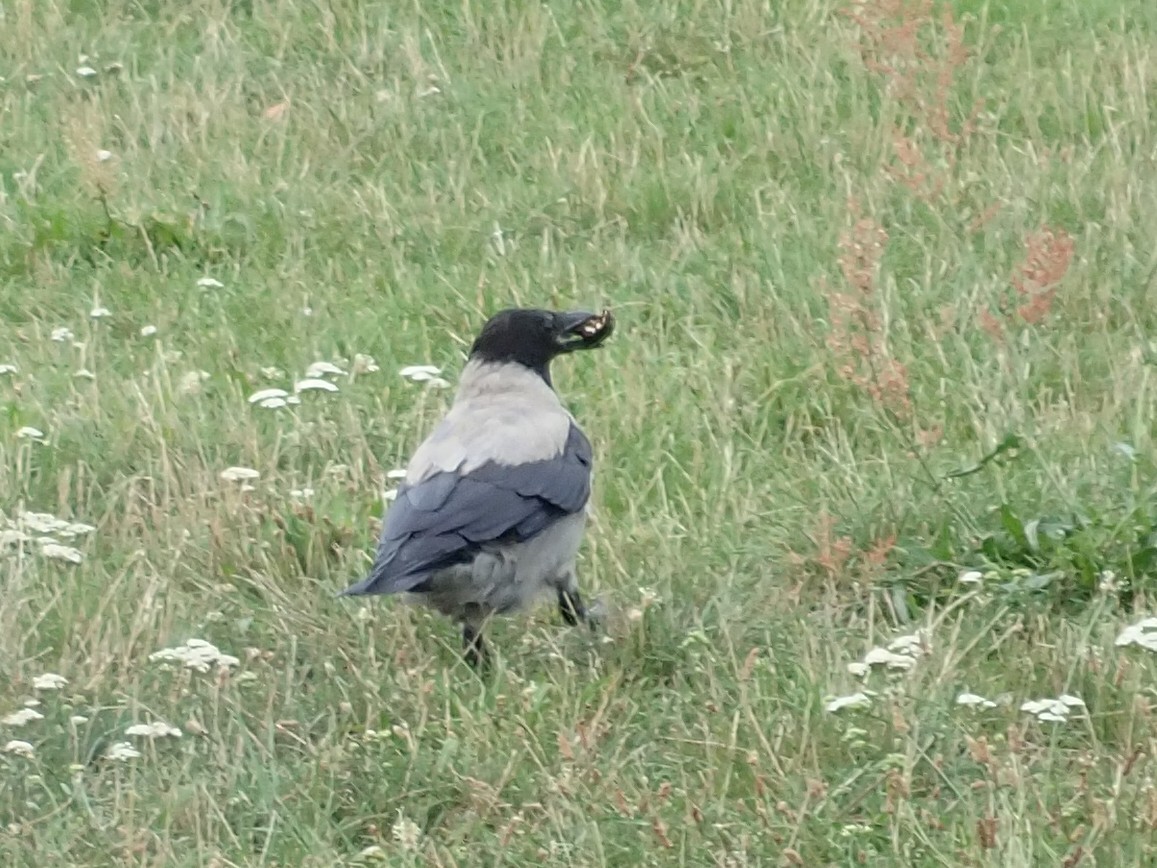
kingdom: Animalia
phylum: Chordata
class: Aves
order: Passeriformes
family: Corvidae
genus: Corvus
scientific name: Corvus cornix
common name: Hooded crow
